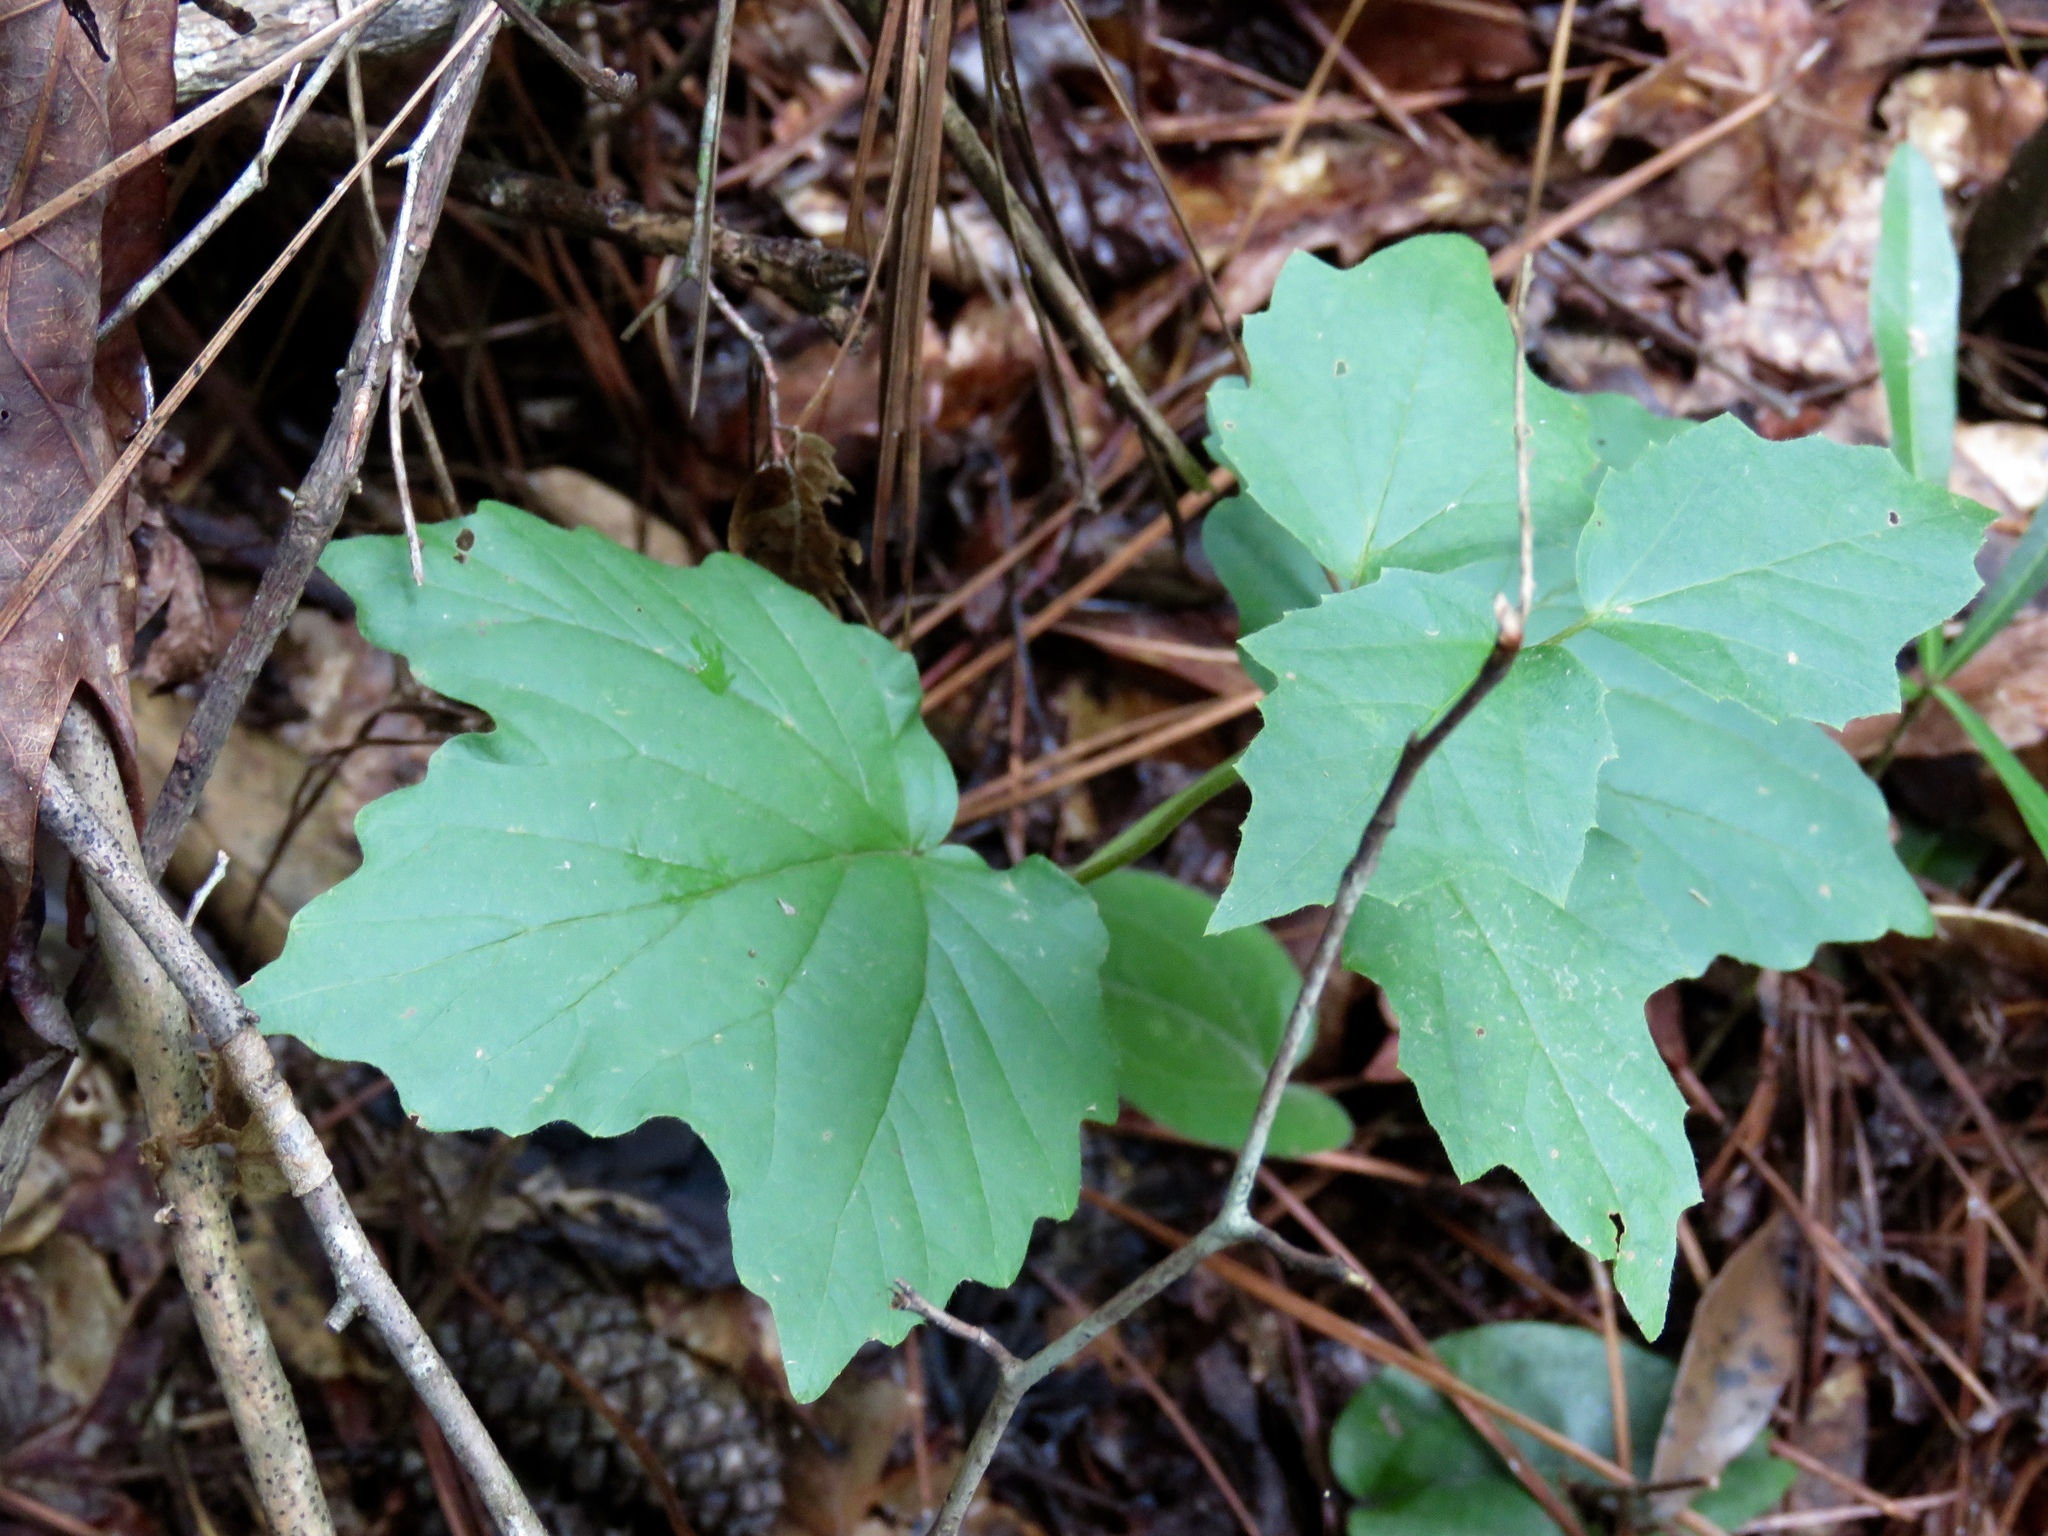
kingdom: Plantae
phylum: Tracheophyta
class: Magnoliopsida
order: Dipsacales
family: Viburnaceae
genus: Viburnum
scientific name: Viburnum acerifolium
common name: Dockmackie
